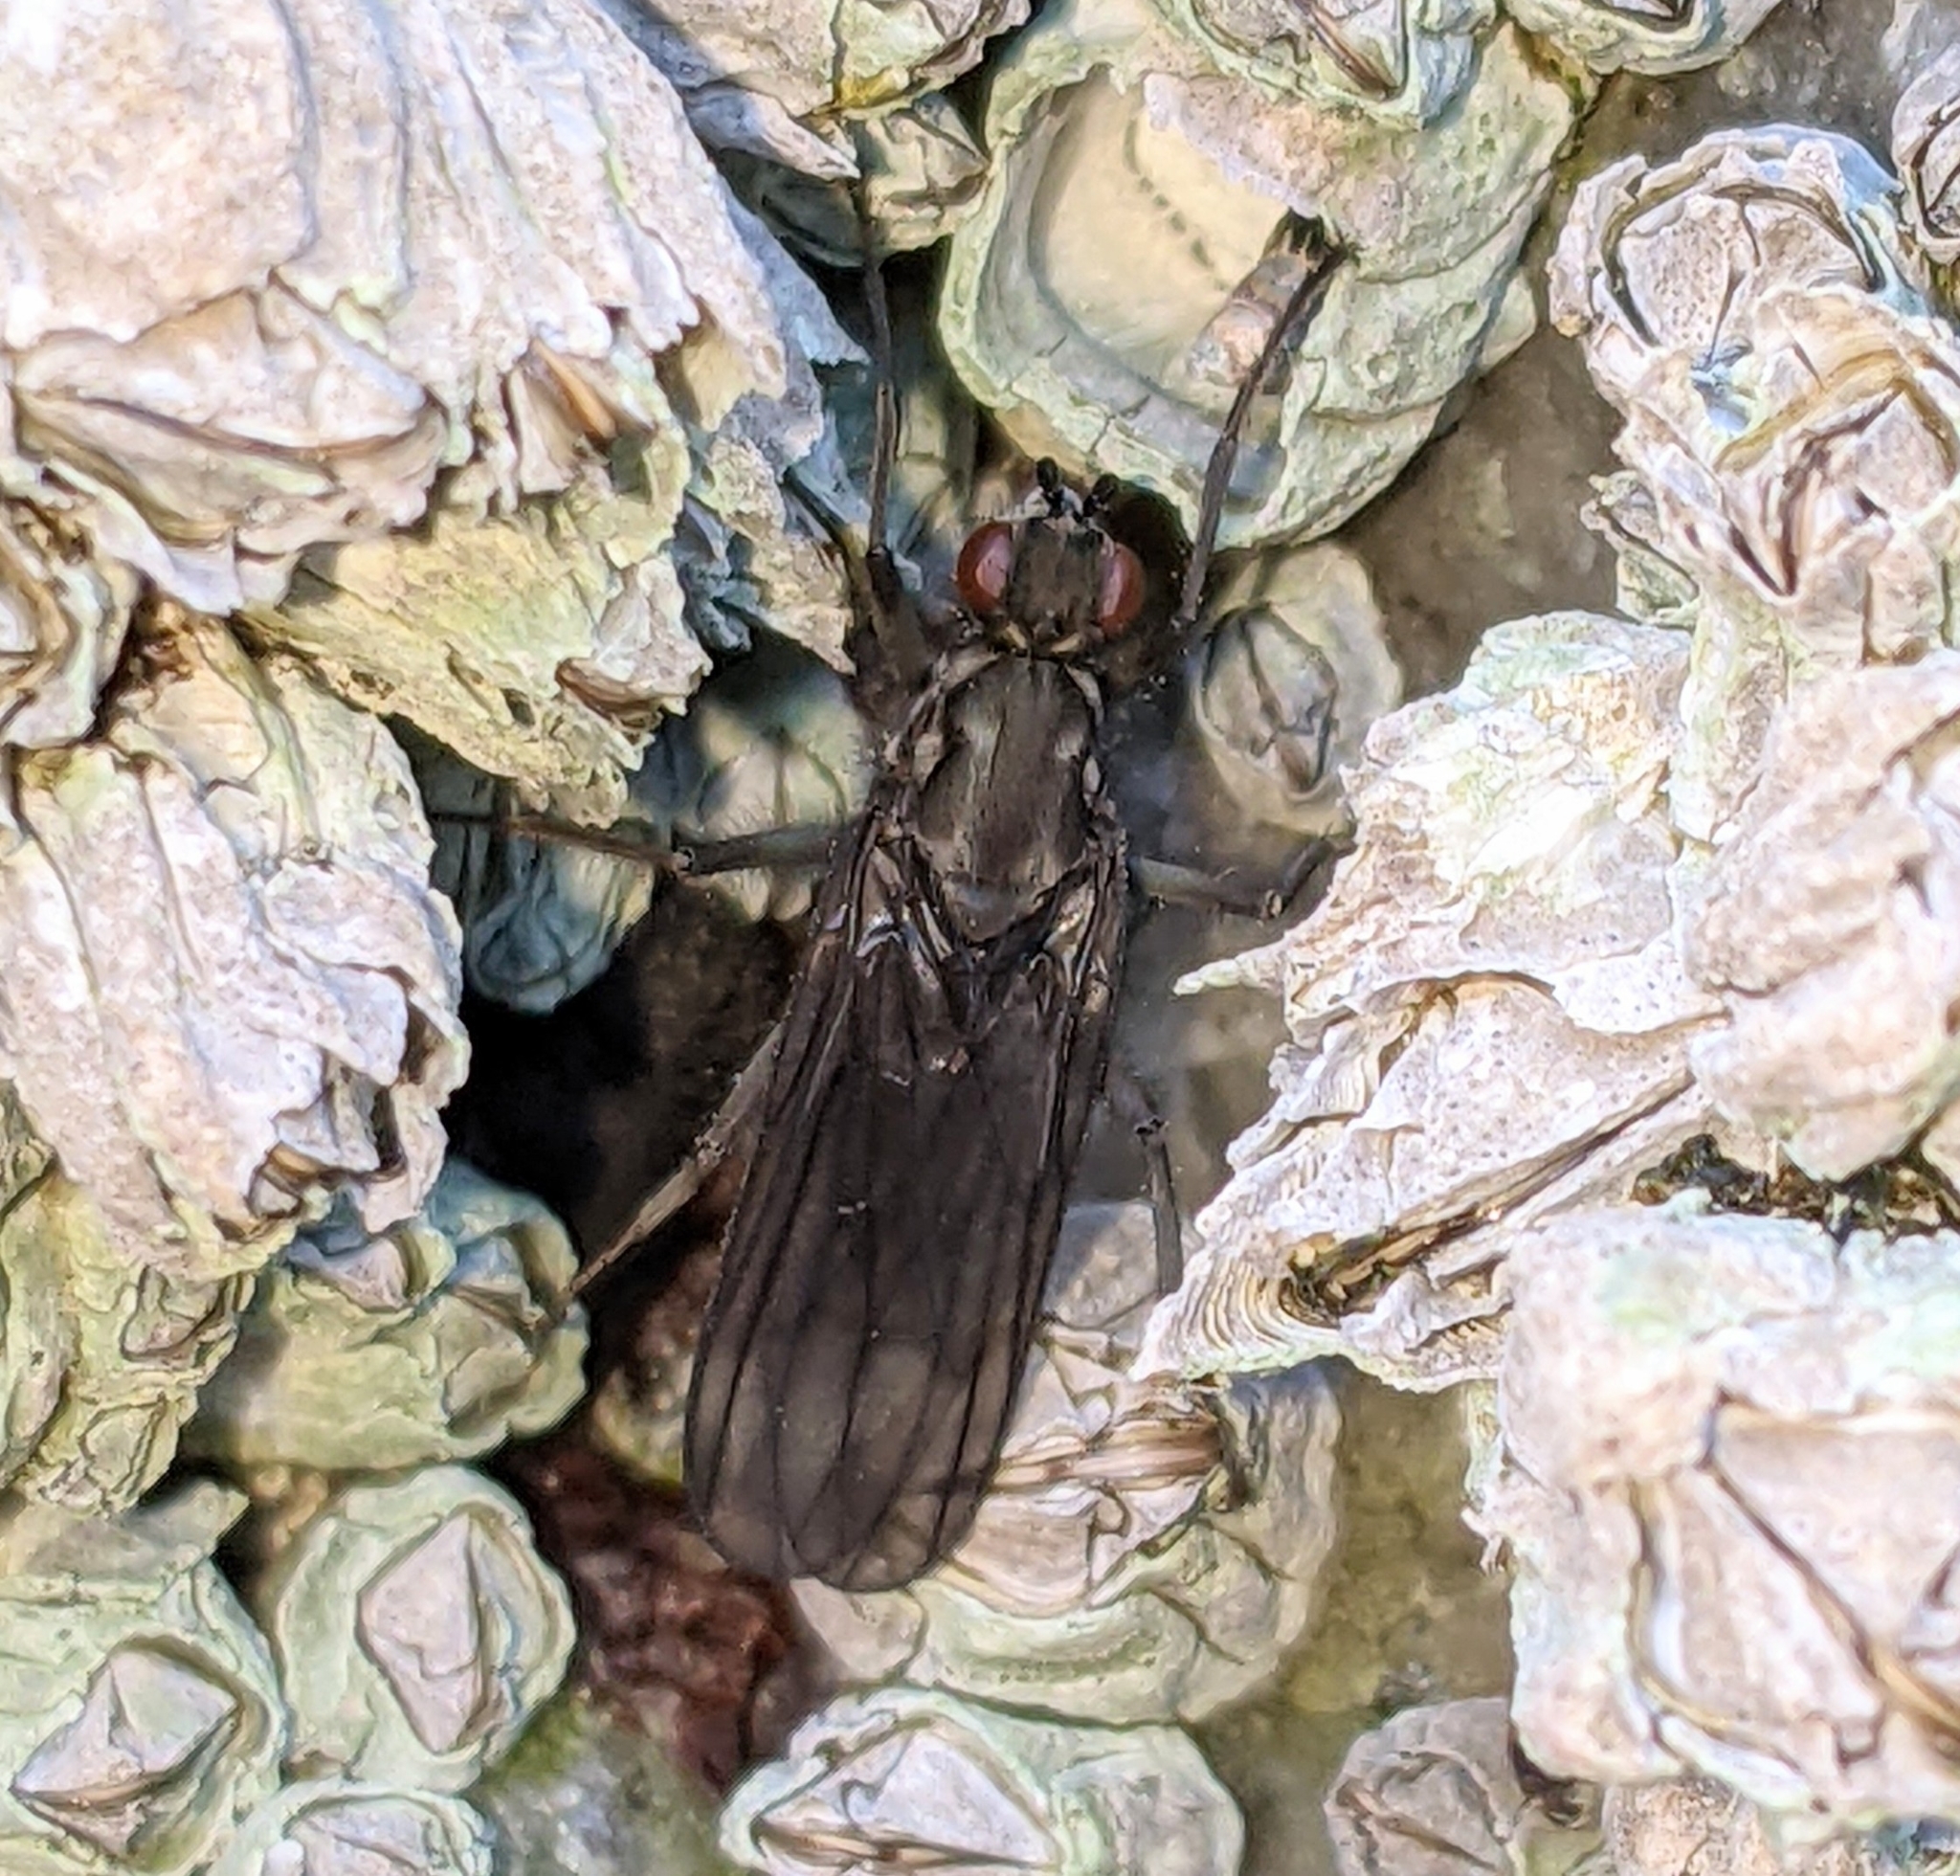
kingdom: Animalia
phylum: Arthropoda
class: Insecta
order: Diptera
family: Dryomyzidae
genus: Oedoparena
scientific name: Oedoparena glauca
